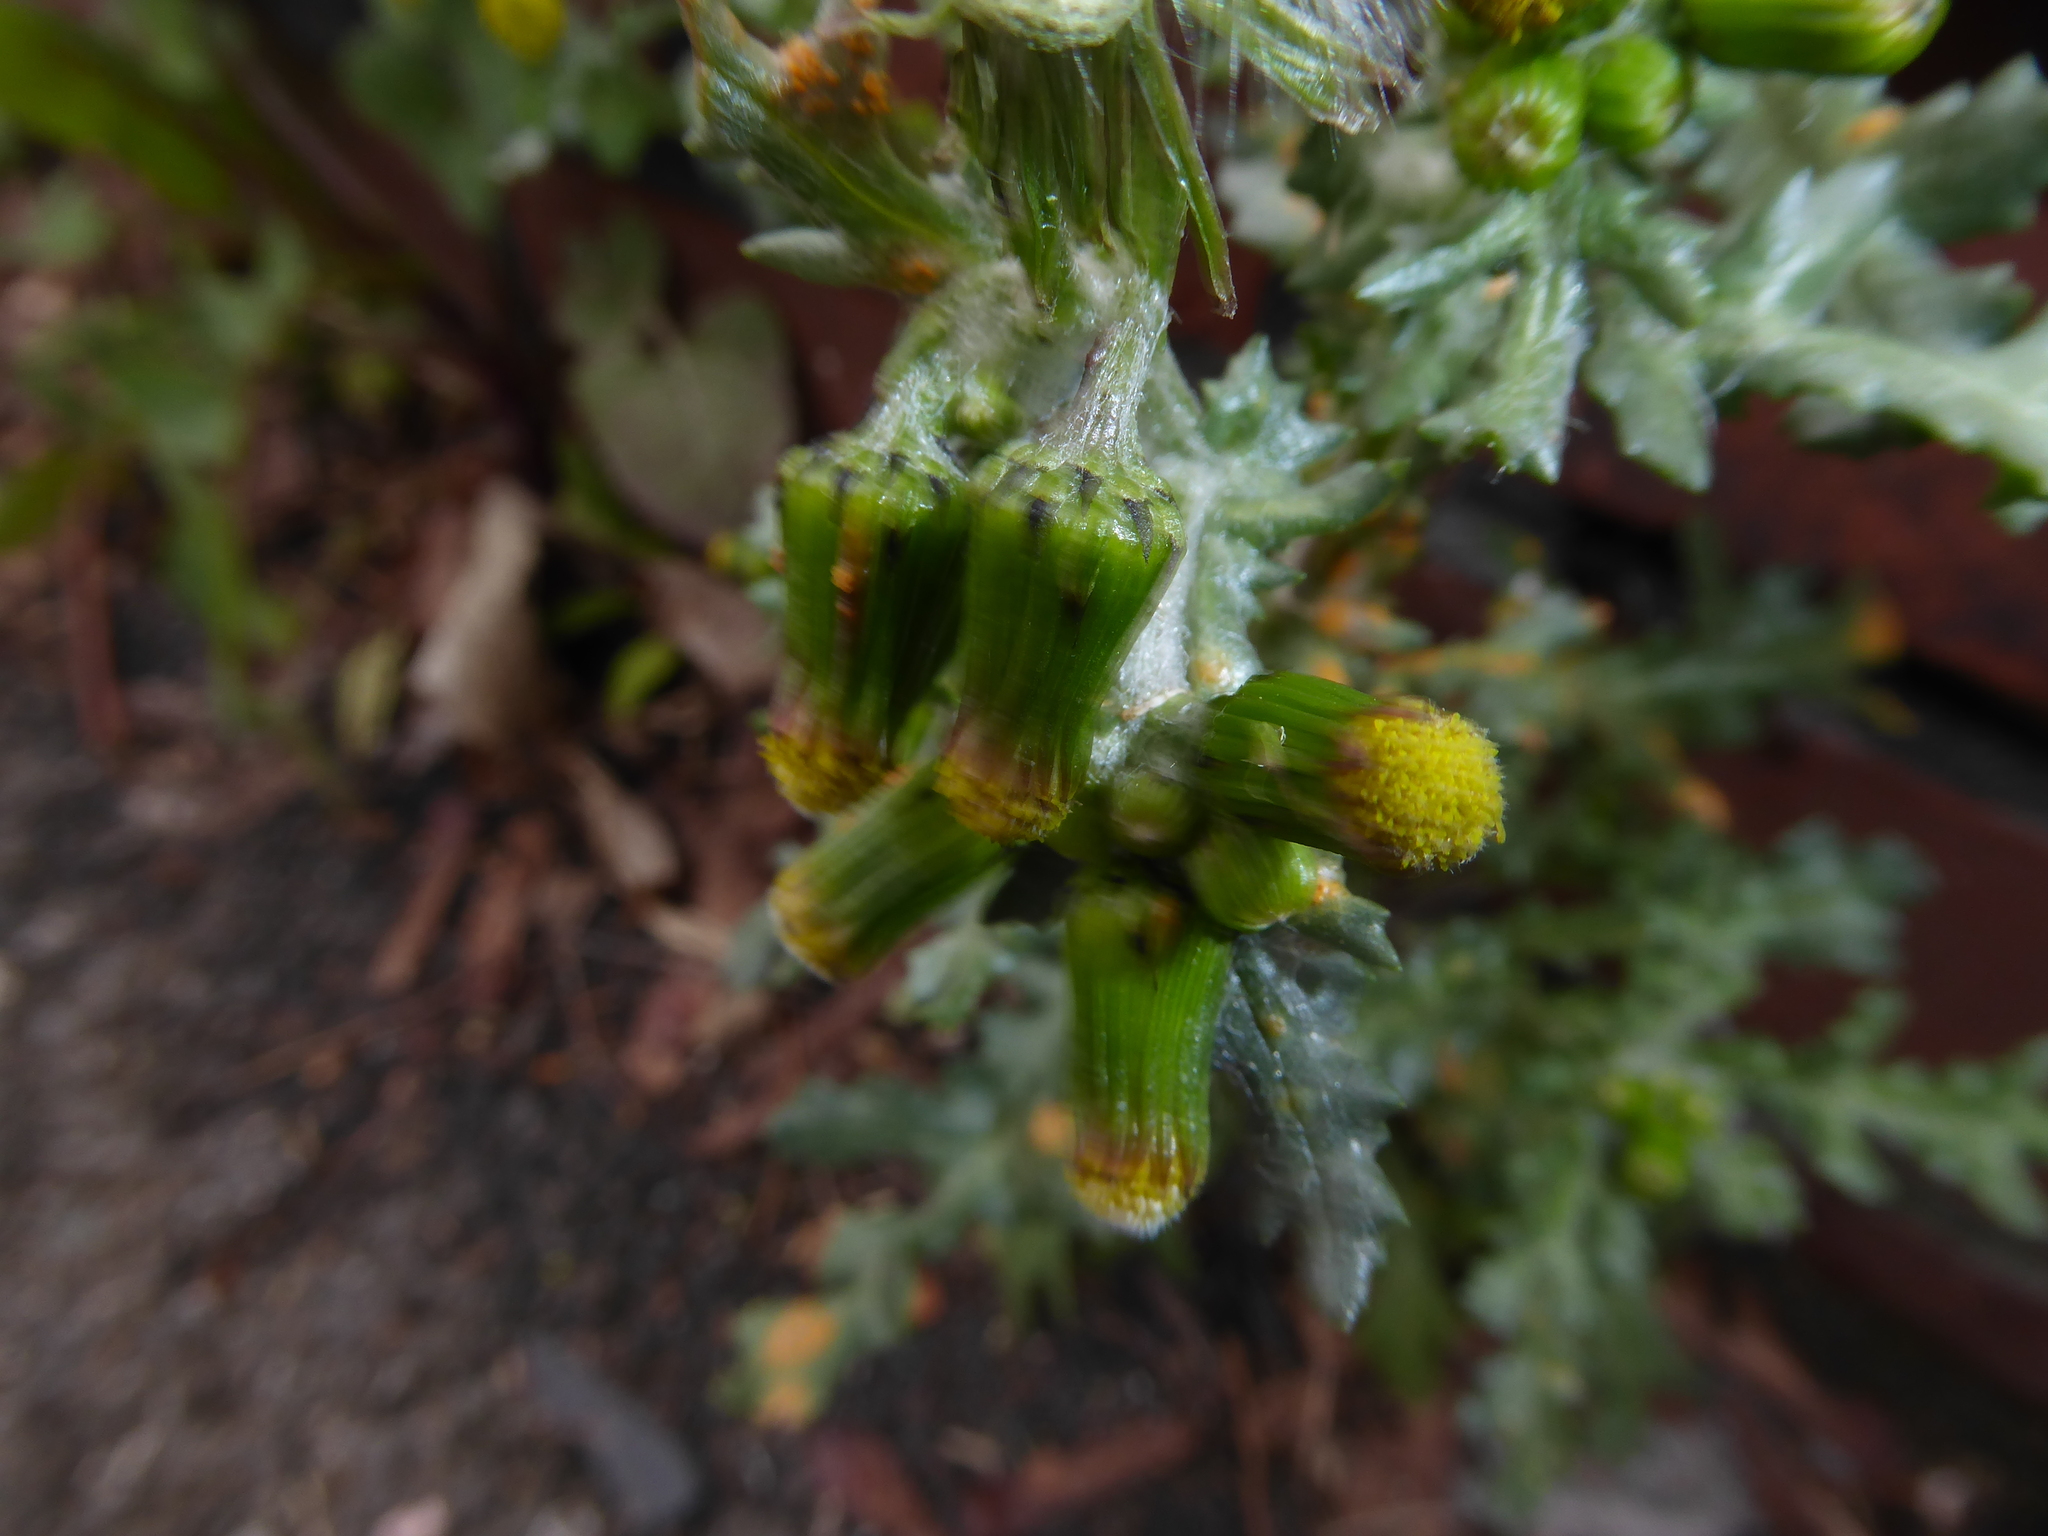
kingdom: Fungi
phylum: Basidiomycota
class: Pucciniomycetes
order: Pucciniales
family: Pucciniaceae
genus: Puccinia
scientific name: Puccinia lagenophorae
